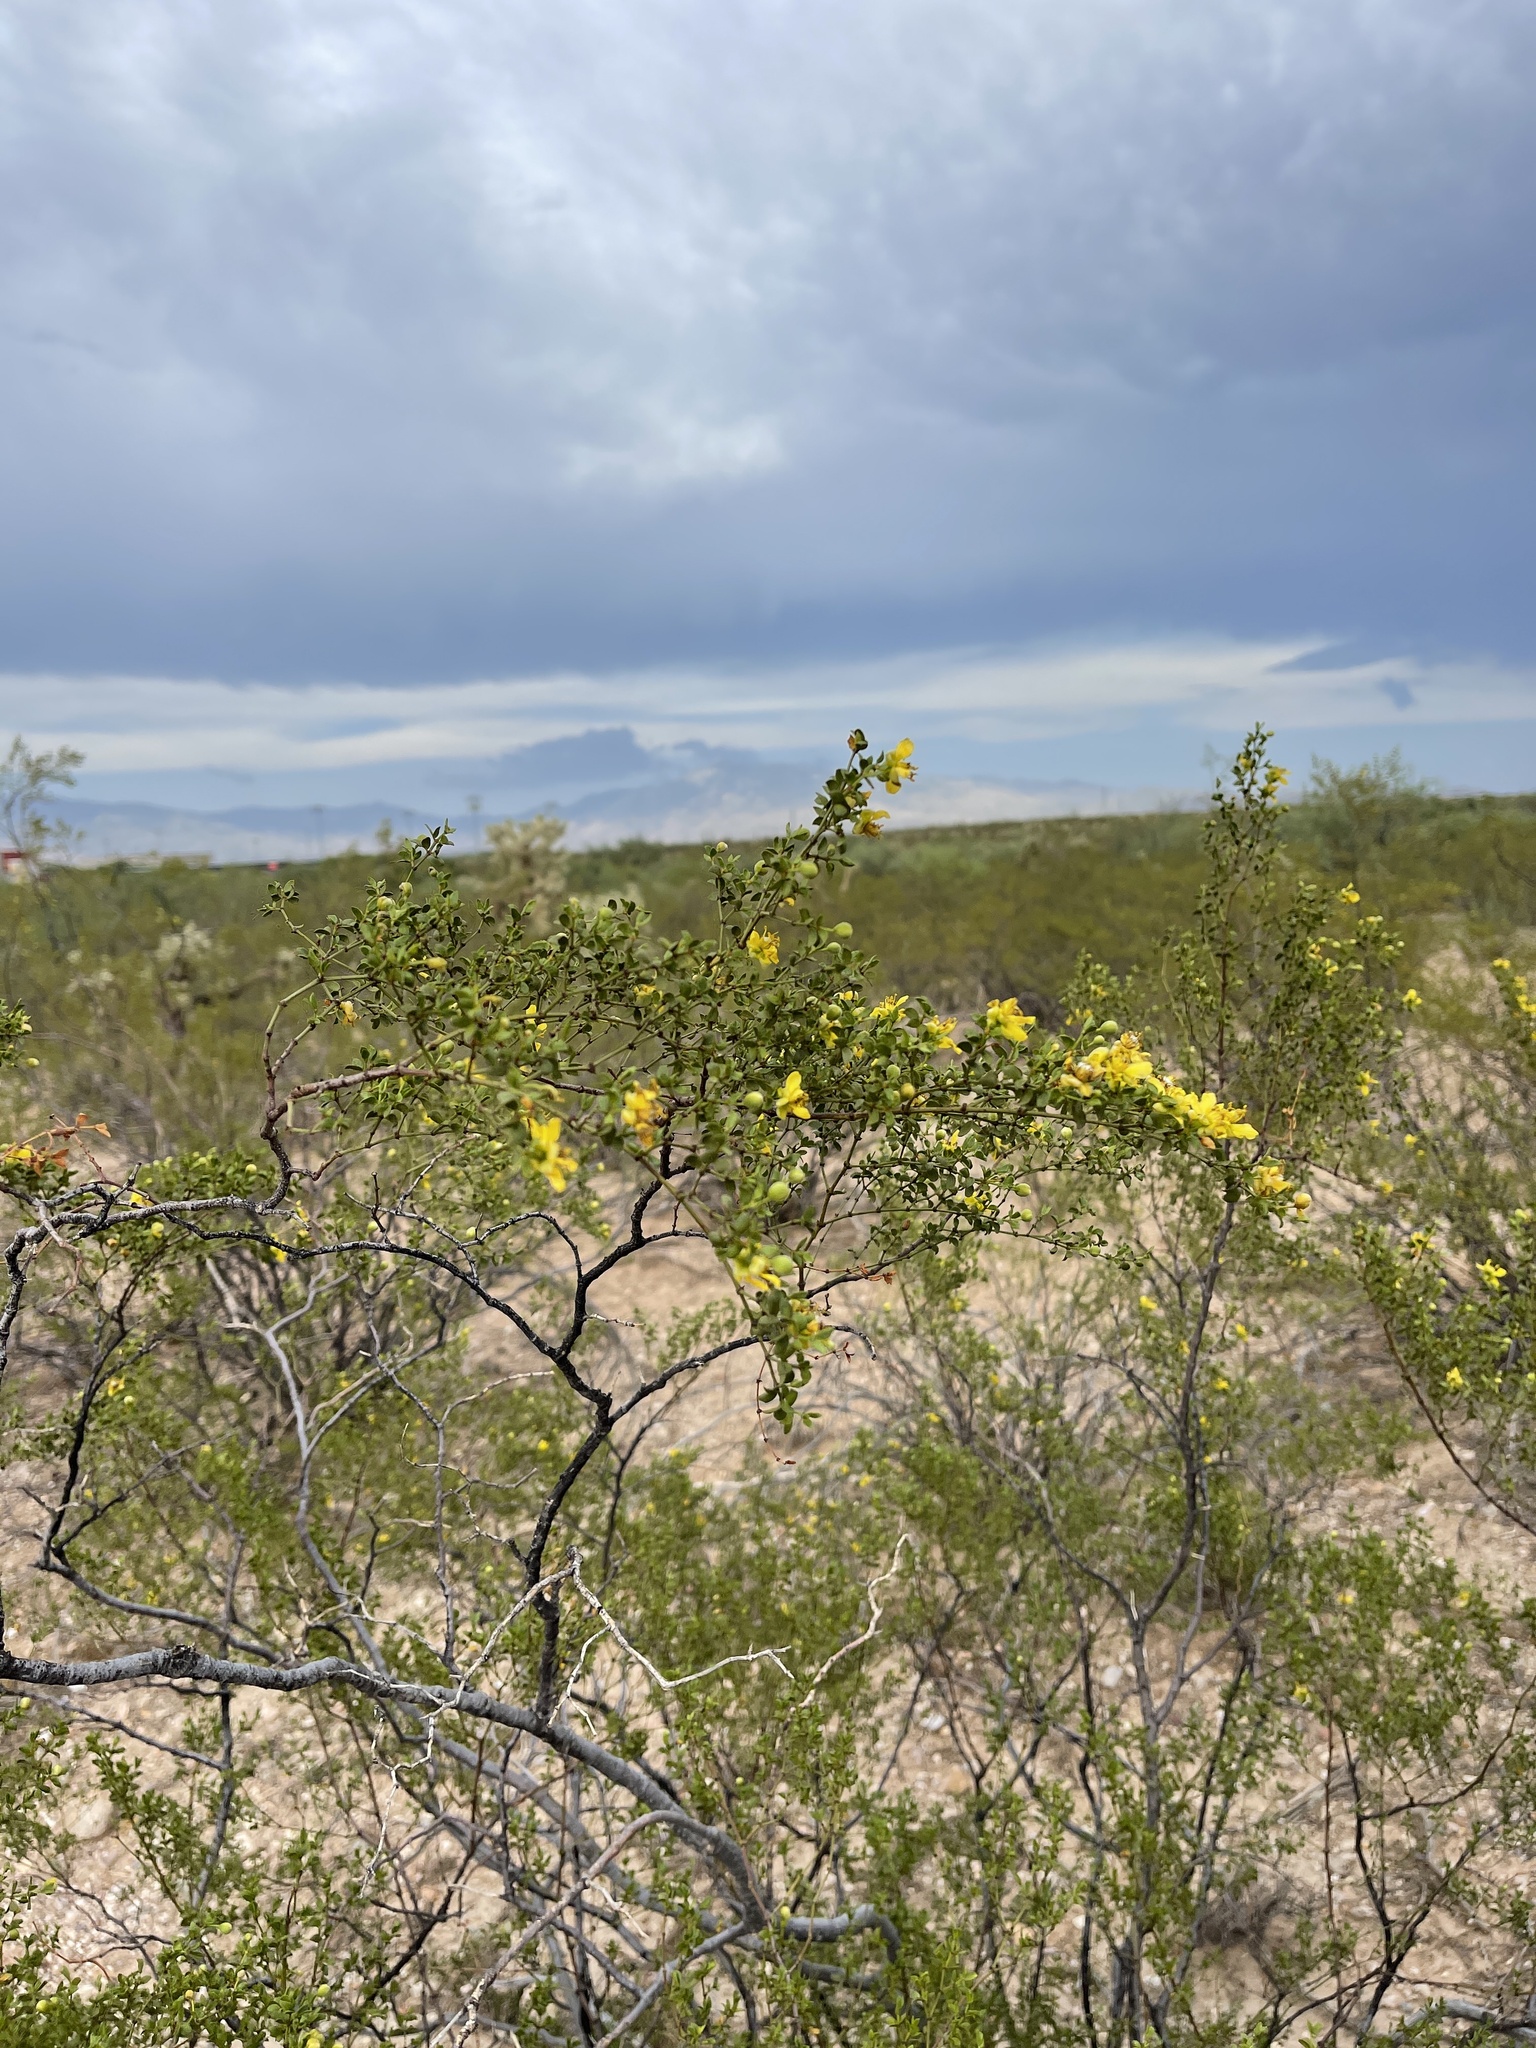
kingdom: Plantae
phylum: Tracheophyta
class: Magnoliopsida
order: Zygophyllales
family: Zygophyllaceae
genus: Larrea
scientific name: Larrea tridentata
